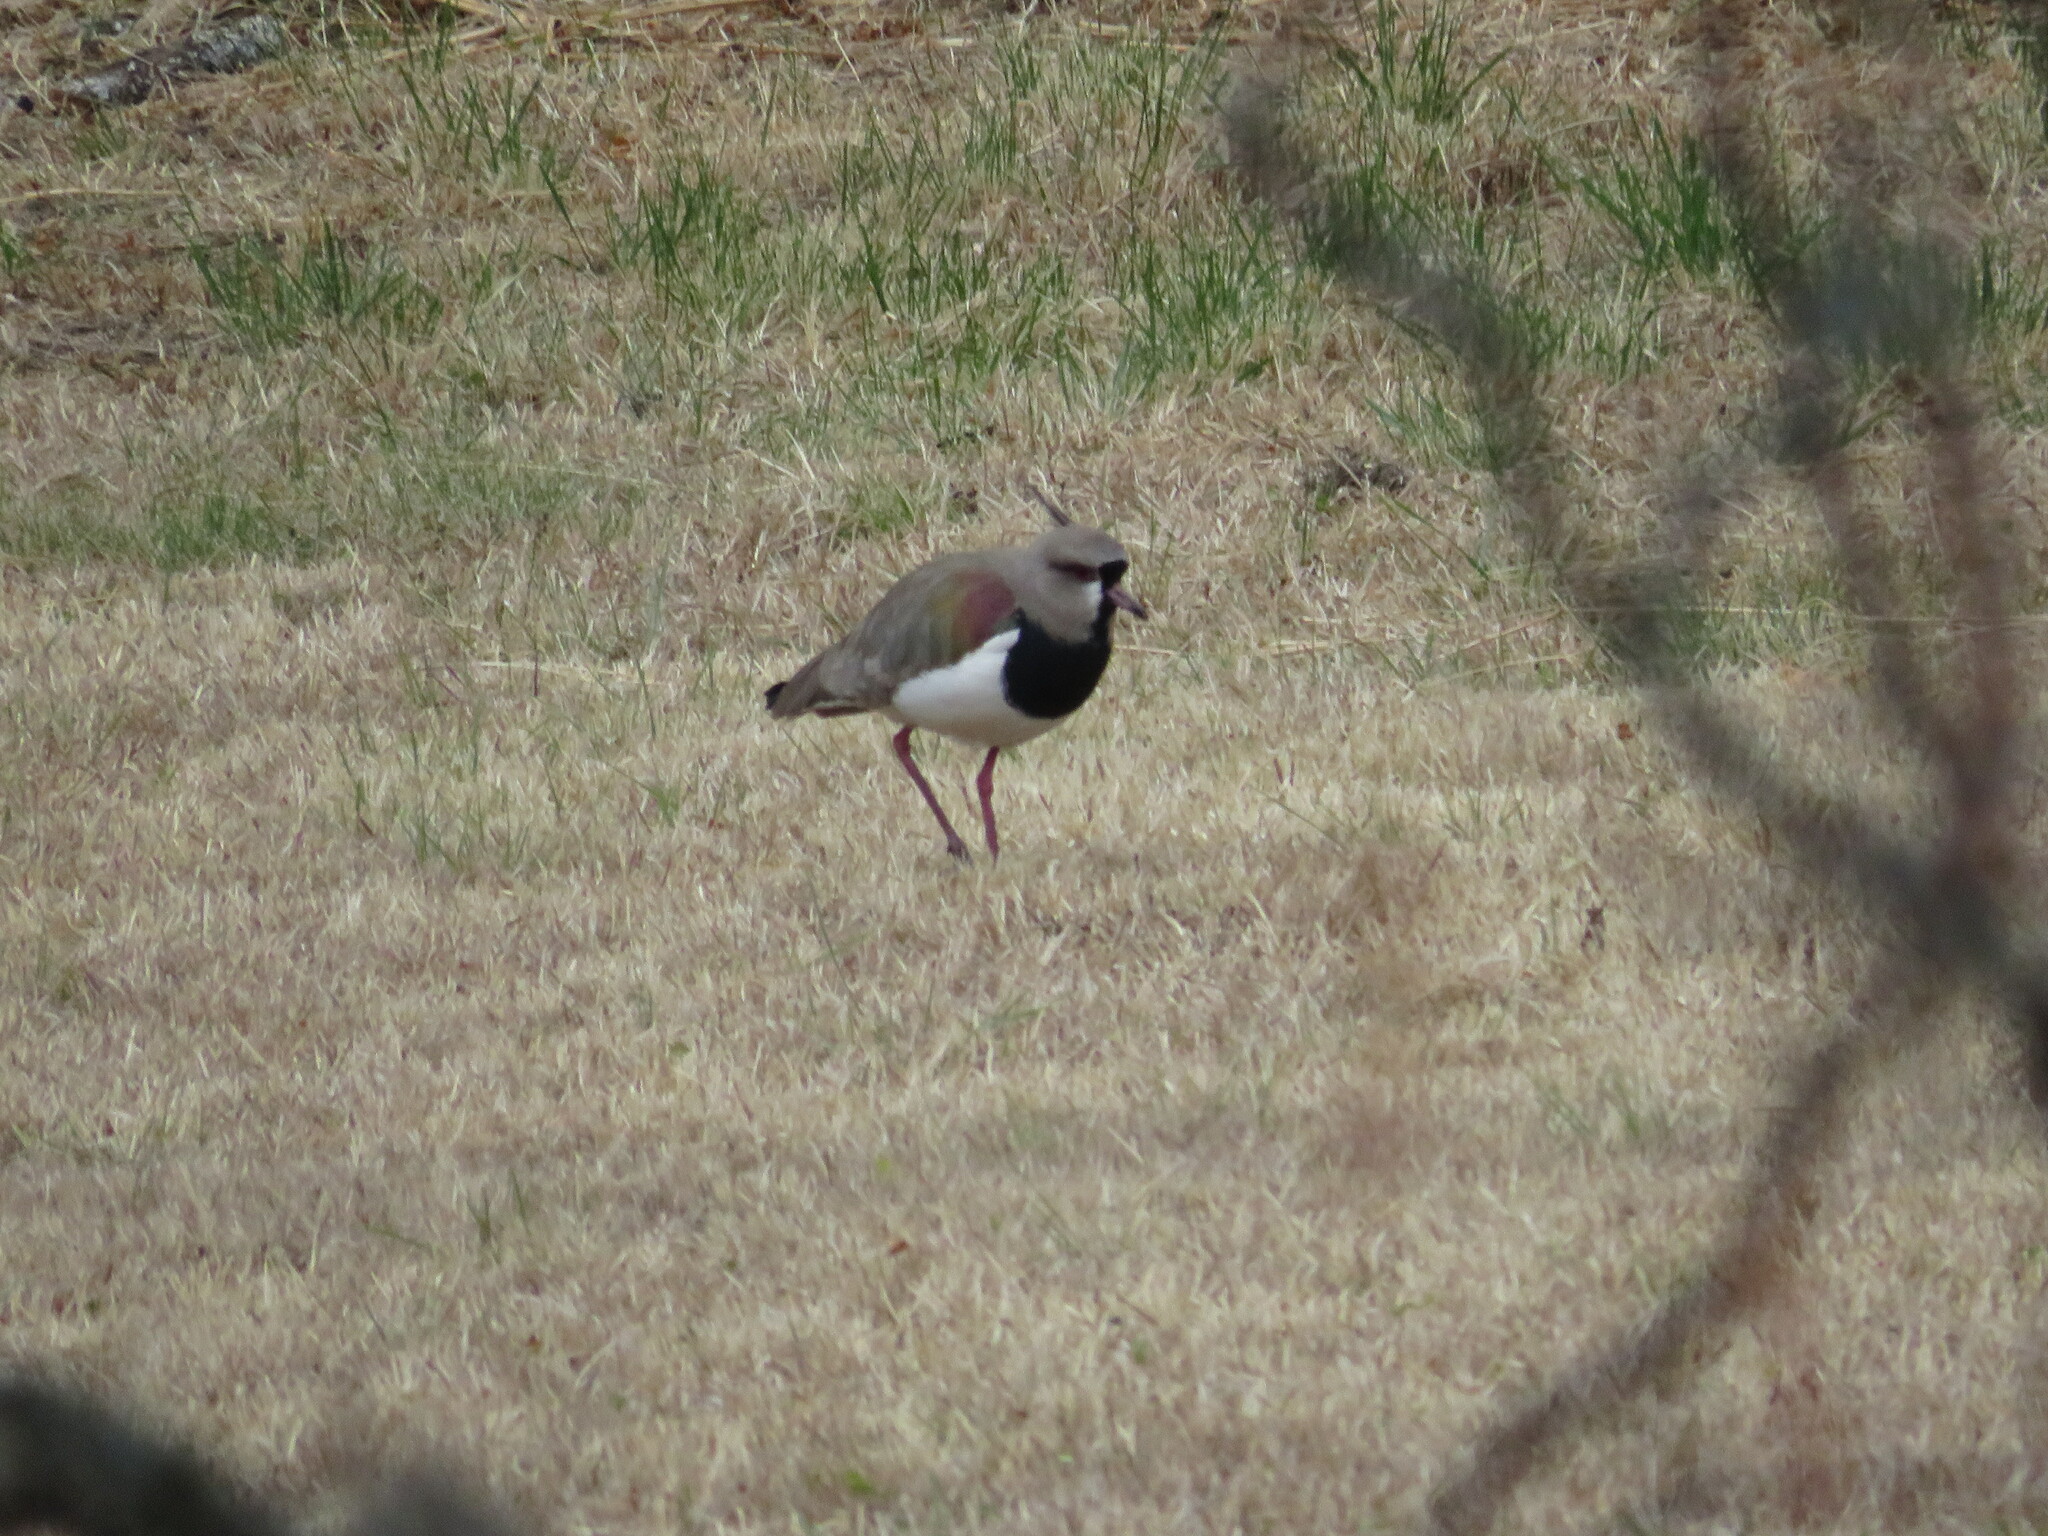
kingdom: Animalia
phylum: Chordata
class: Aves
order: Charadriiformes
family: Charadriidae
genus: Vanellus
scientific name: Vanellus chilensis
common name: Southern lapwing
